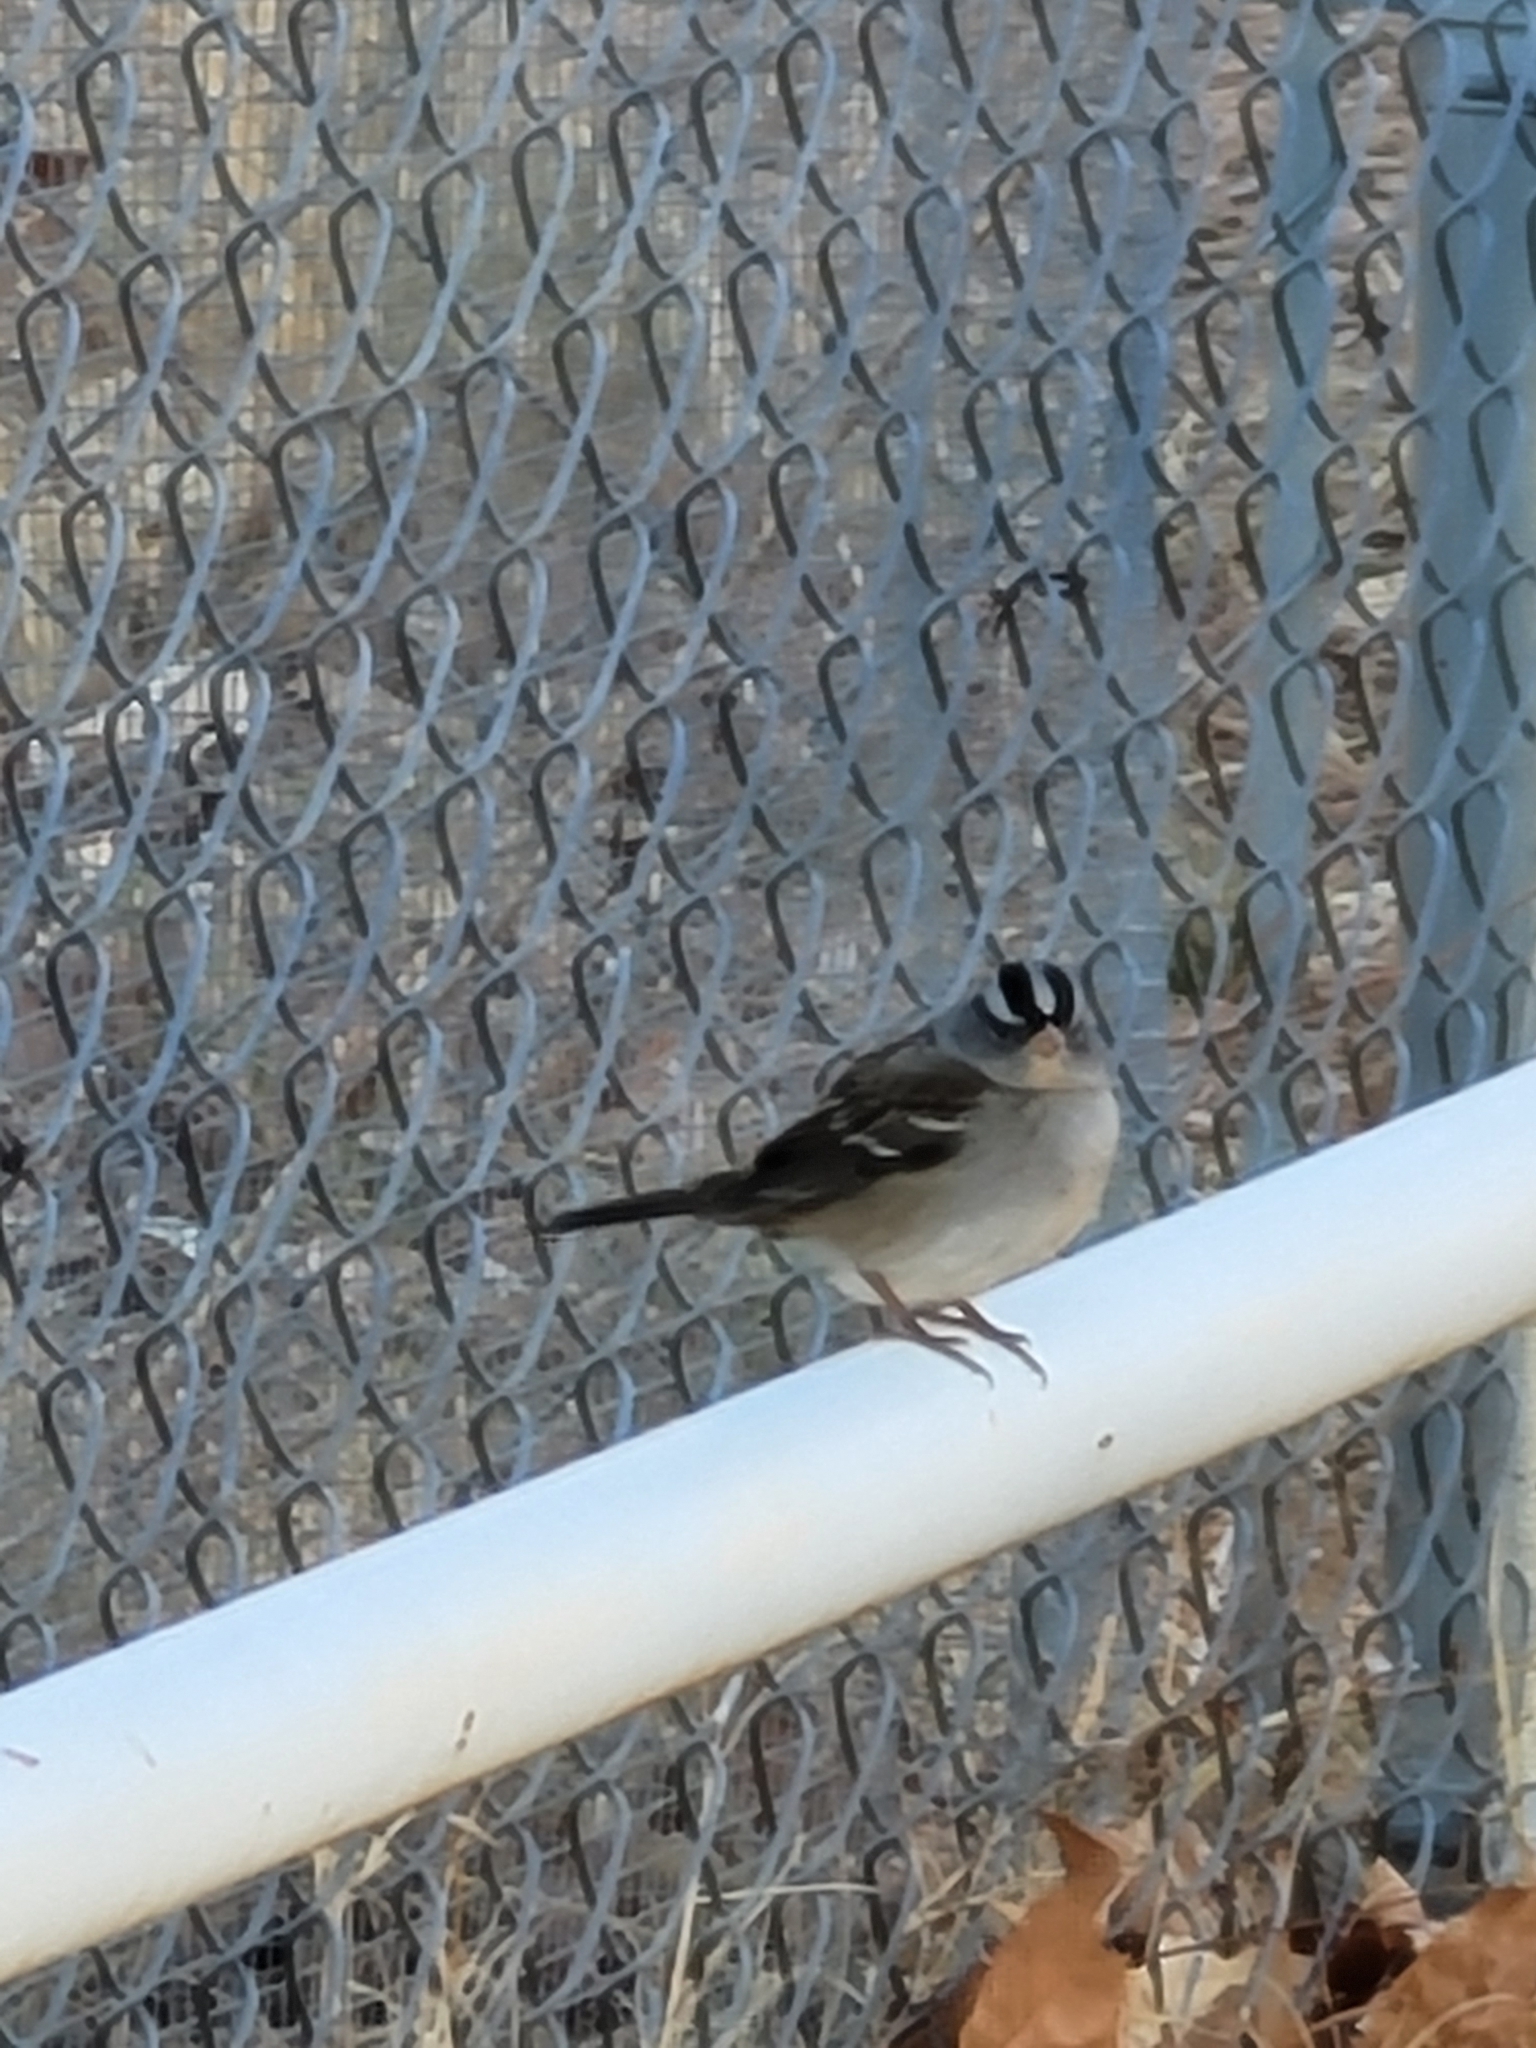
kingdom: Animalia
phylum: Chordata
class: Aves
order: Passeriformes
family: Passerellidae
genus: Zonotrichia
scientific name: Zonotrichia leucophrys
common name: White-crowned sparrow
